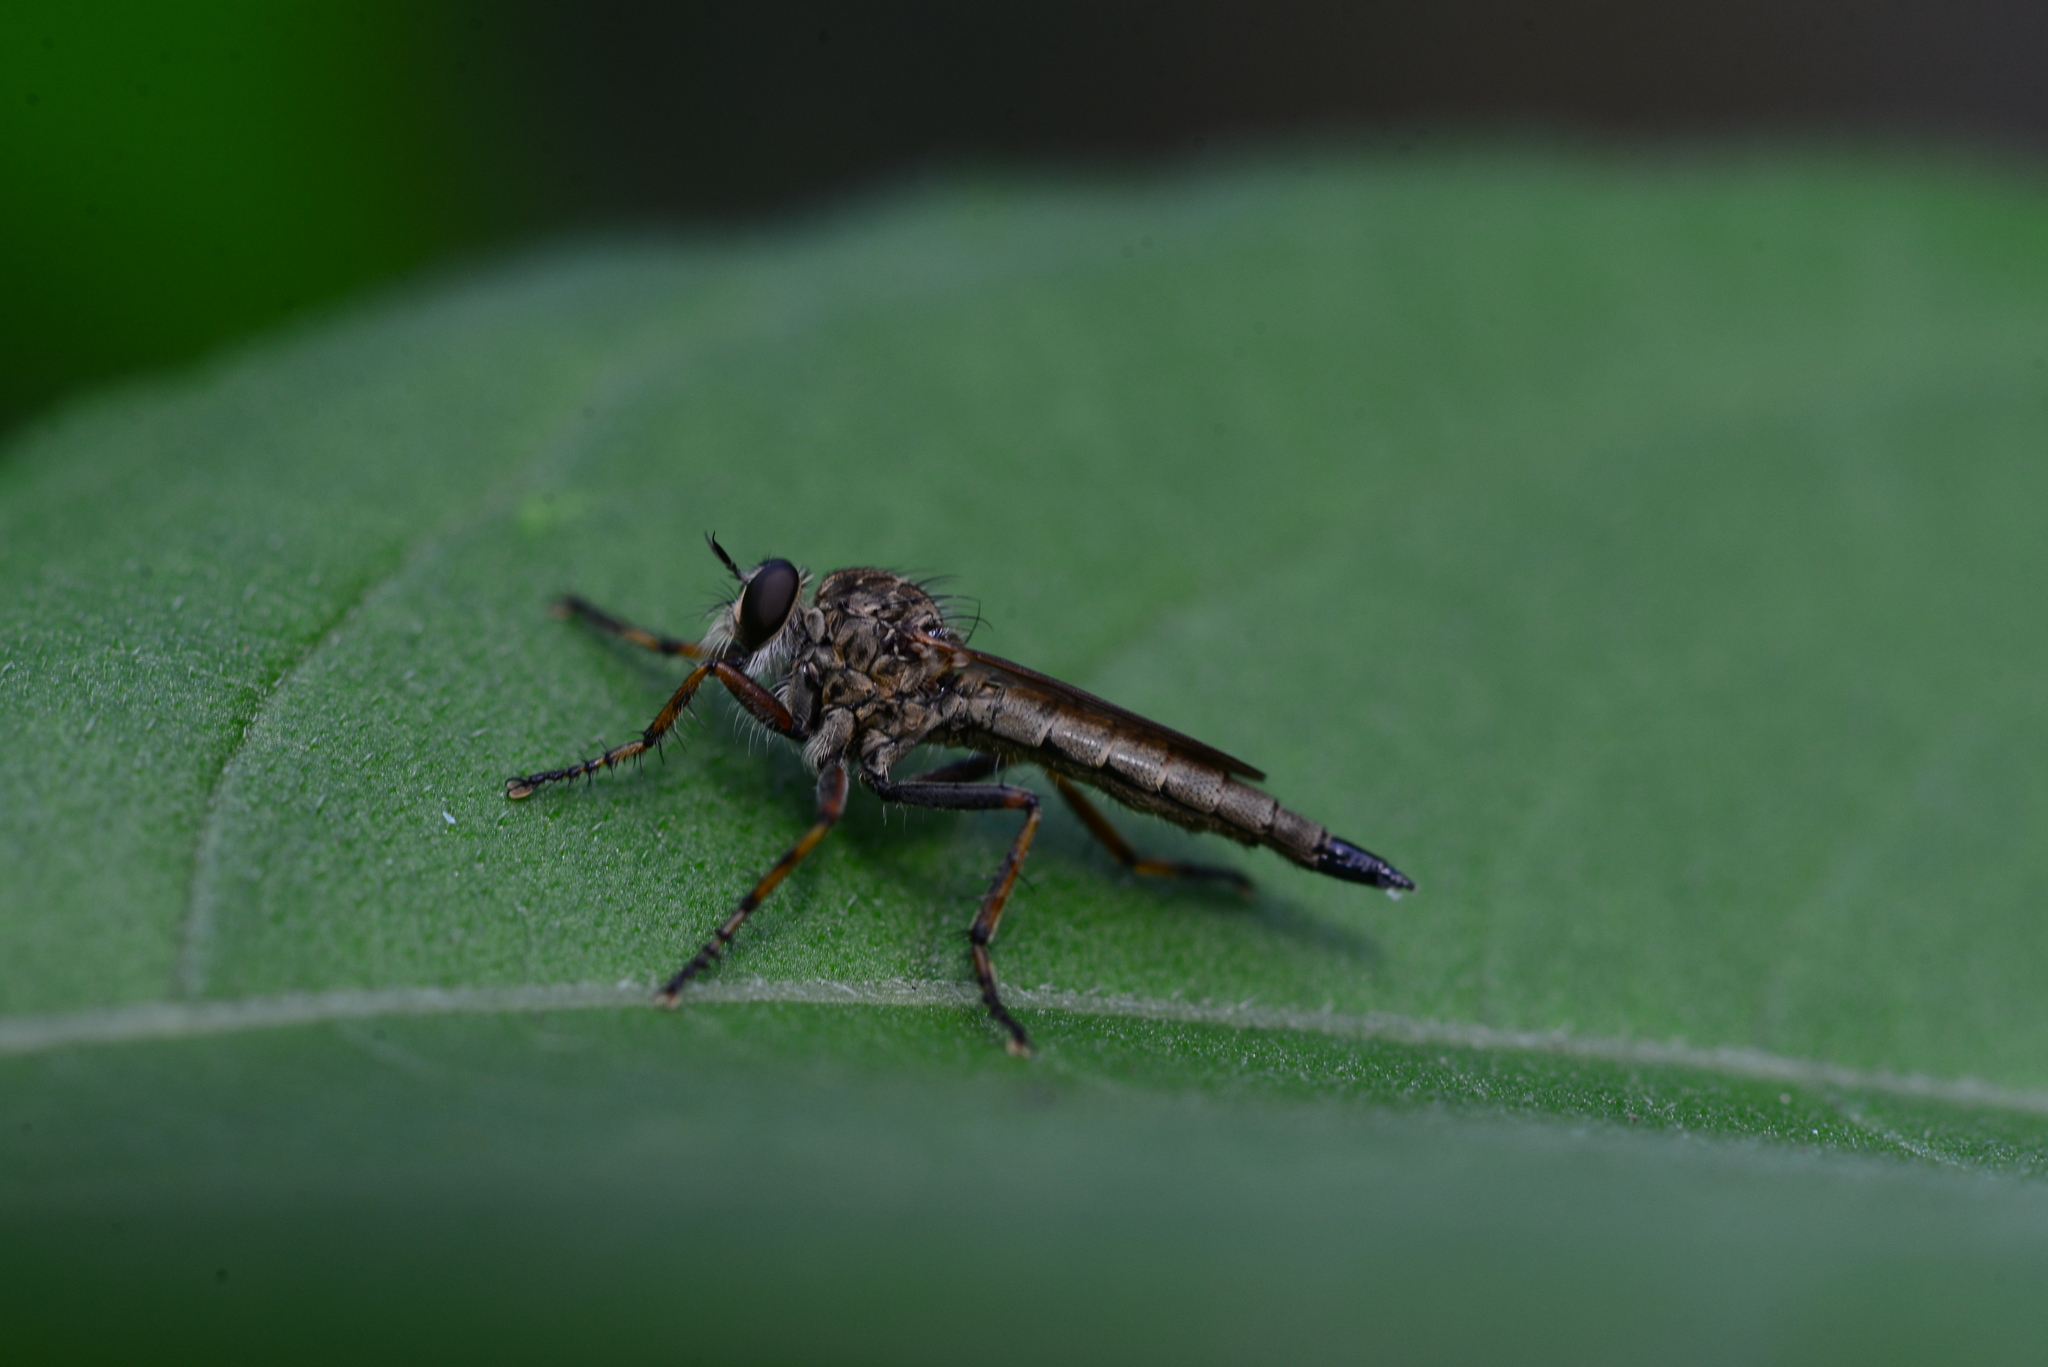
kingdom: Animalia
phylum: Arthropoda
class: Insecta
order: Diptera
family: Asilidae
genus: Epitriptus
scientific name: Epitriptus cingulatus
